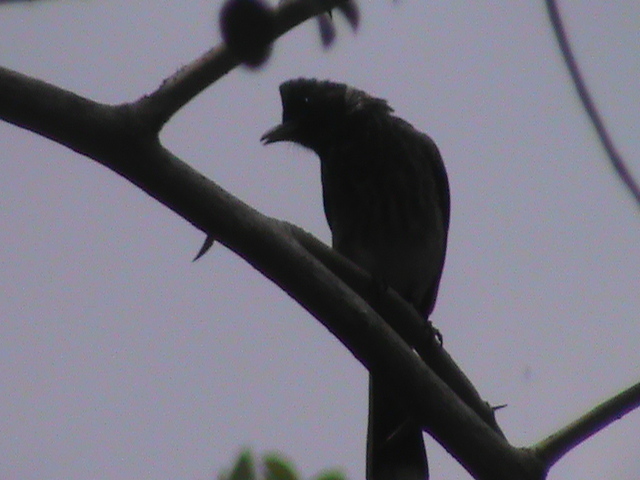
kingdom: Animalia
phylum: Chordata
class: Aves
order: Passeriformes
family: Pycnonotidae
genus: Pycnonotus
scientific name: Pycnonotus cafer
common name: Red-vented bulbul
